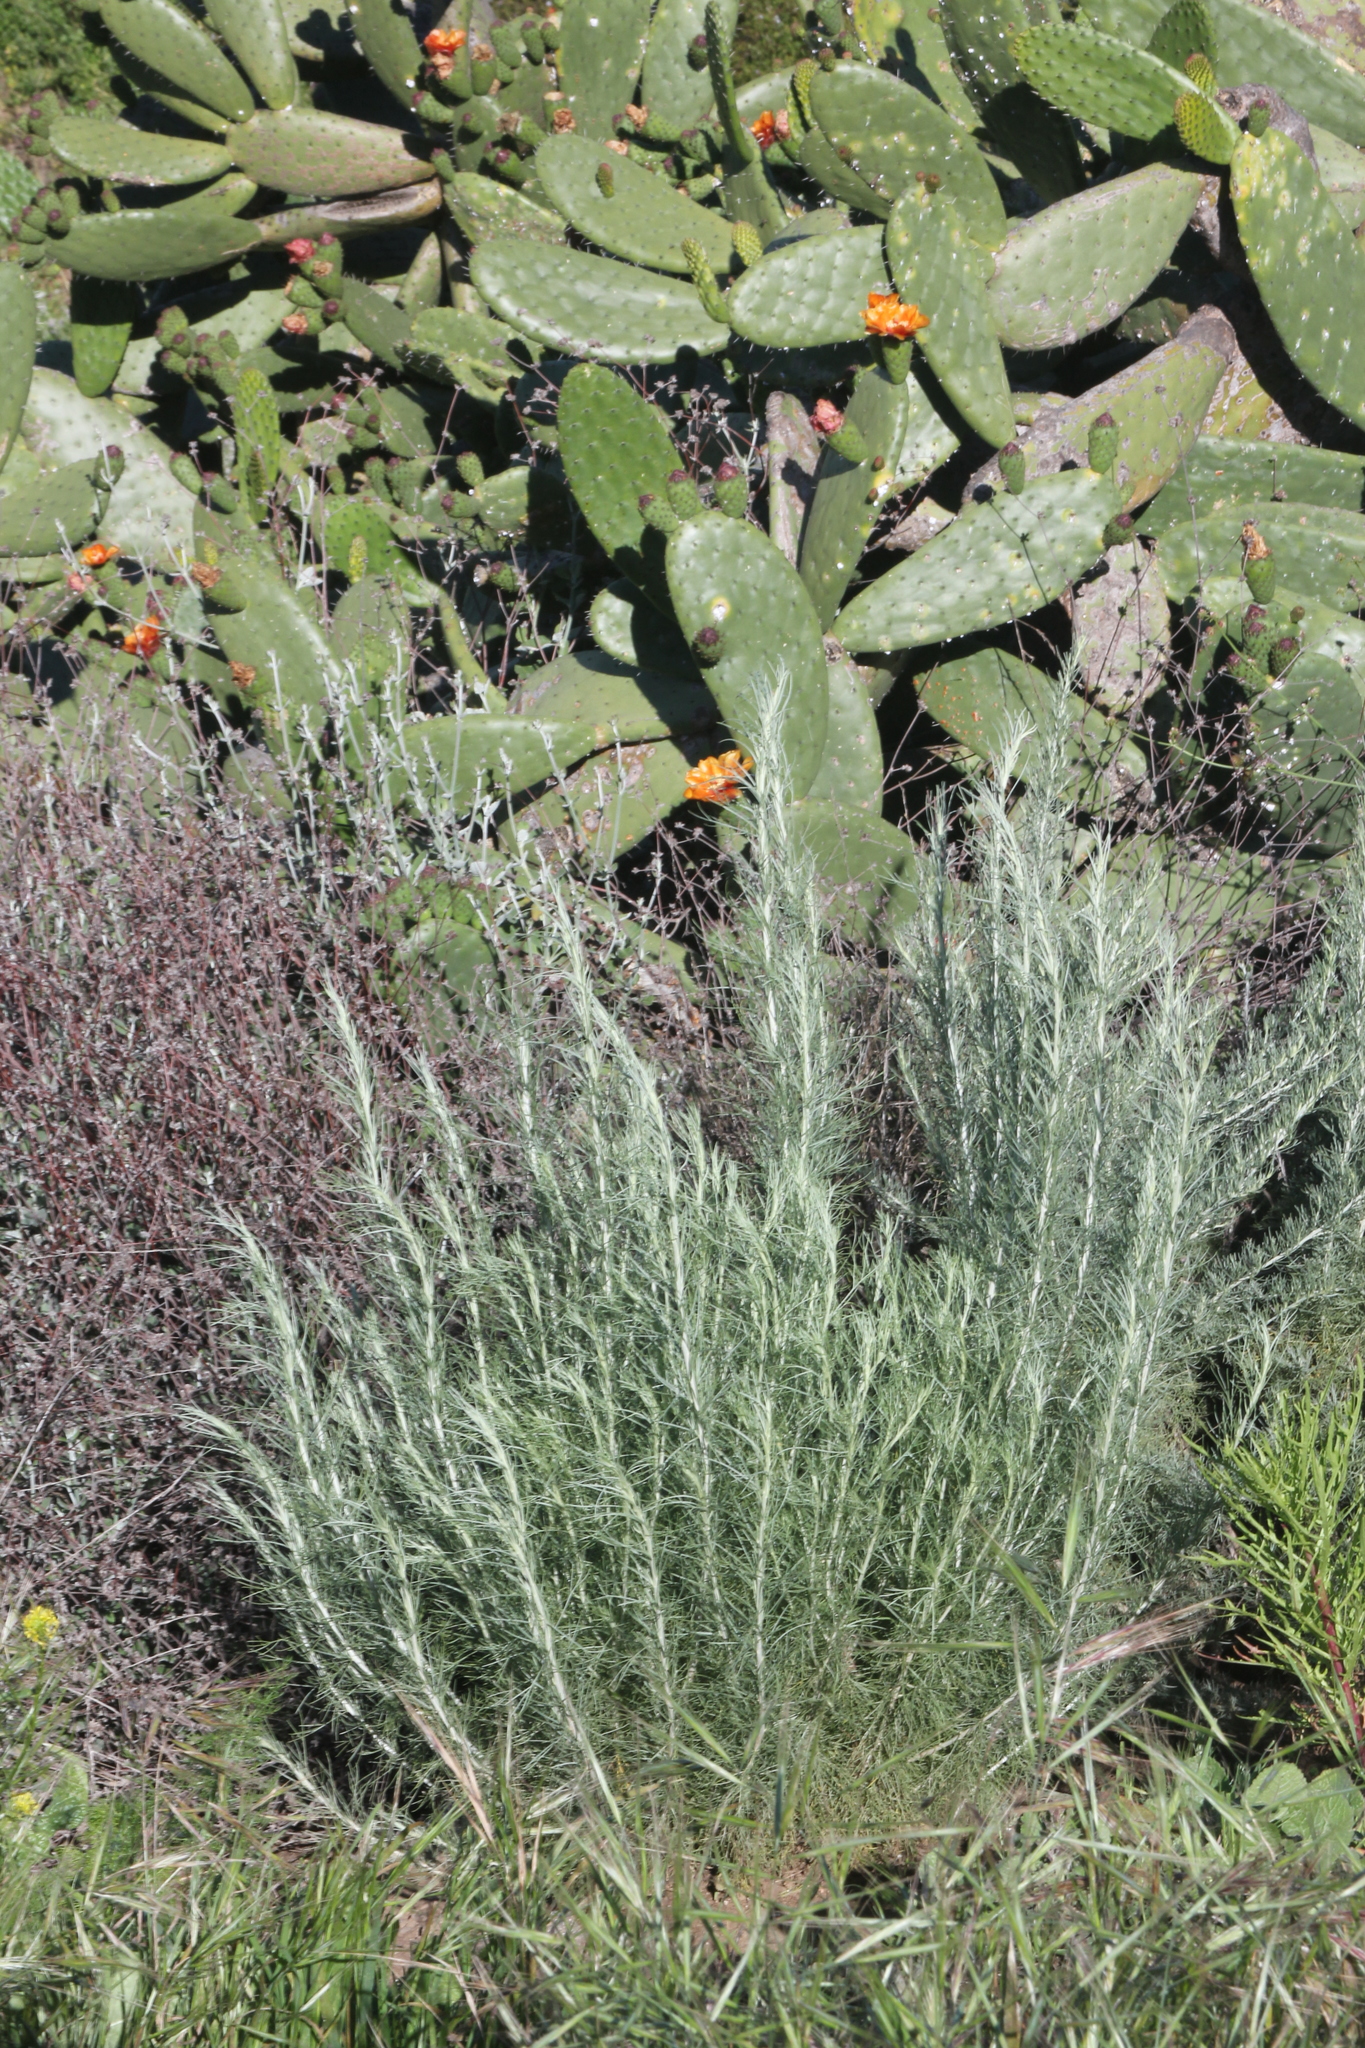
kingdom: Plantae
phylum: Tracheophyta
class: Magnoliopsida
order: Asterales
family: Asteraceae
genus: Artemisia
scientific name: Artemisia californica
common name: California sagebrush
